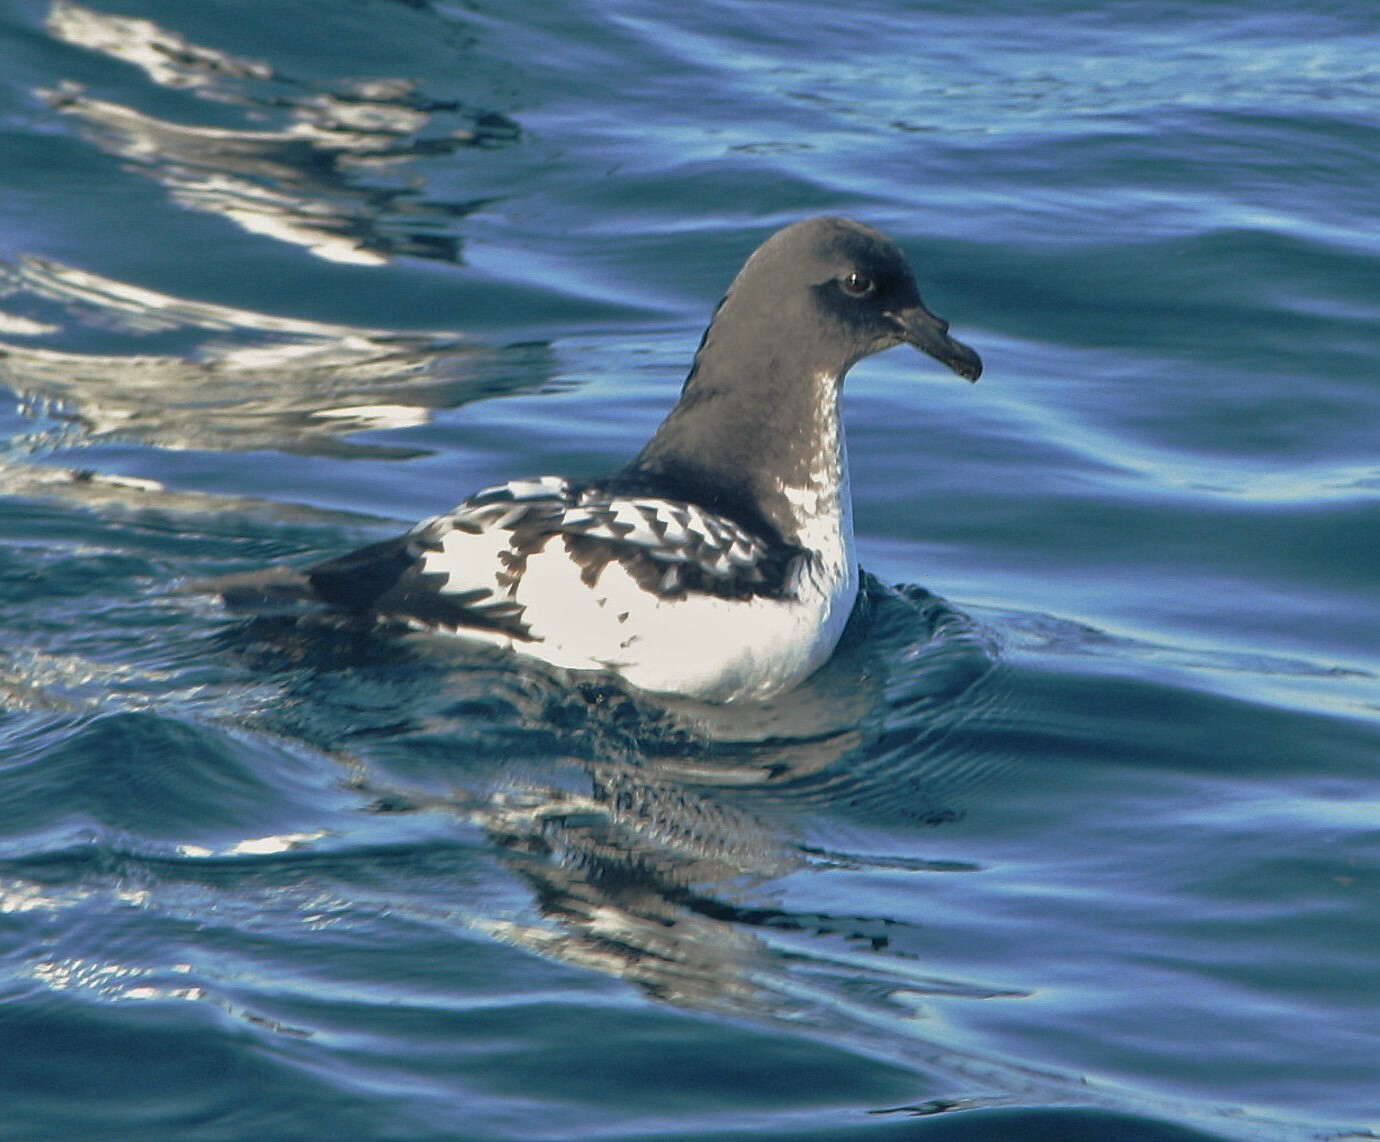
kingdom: Animalia
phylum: Chordata
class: Aves
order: Procellariiformes
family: Procellariidae
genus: Daption
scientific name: Daption capense
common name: Cape petrel
